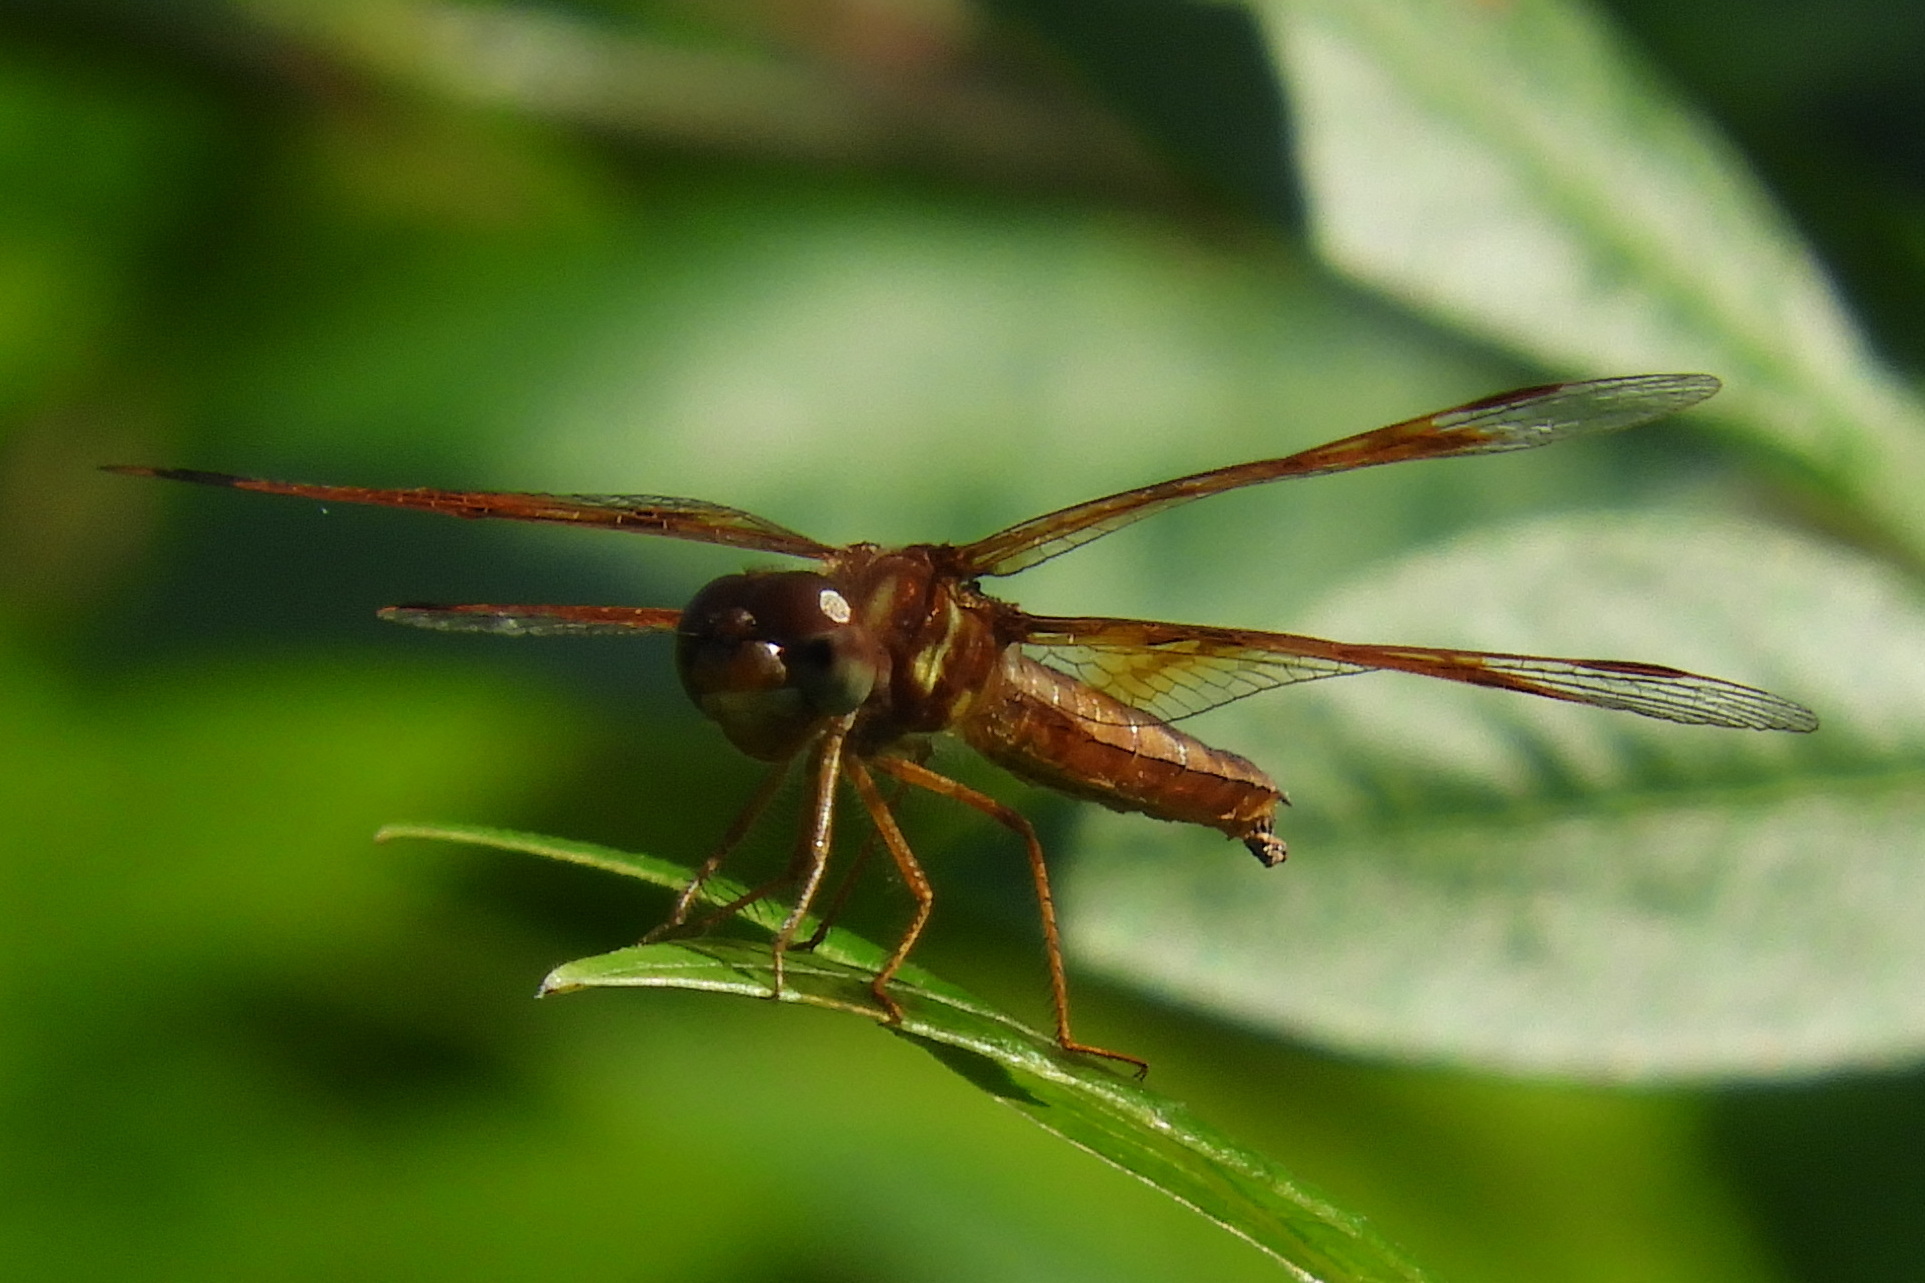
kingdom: Animalia
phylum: Arthropoda
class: Insecta
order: Odonata
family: Libellulidae
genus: Perithemis
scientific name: Perithemis tenera
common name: Eastern amberwing
